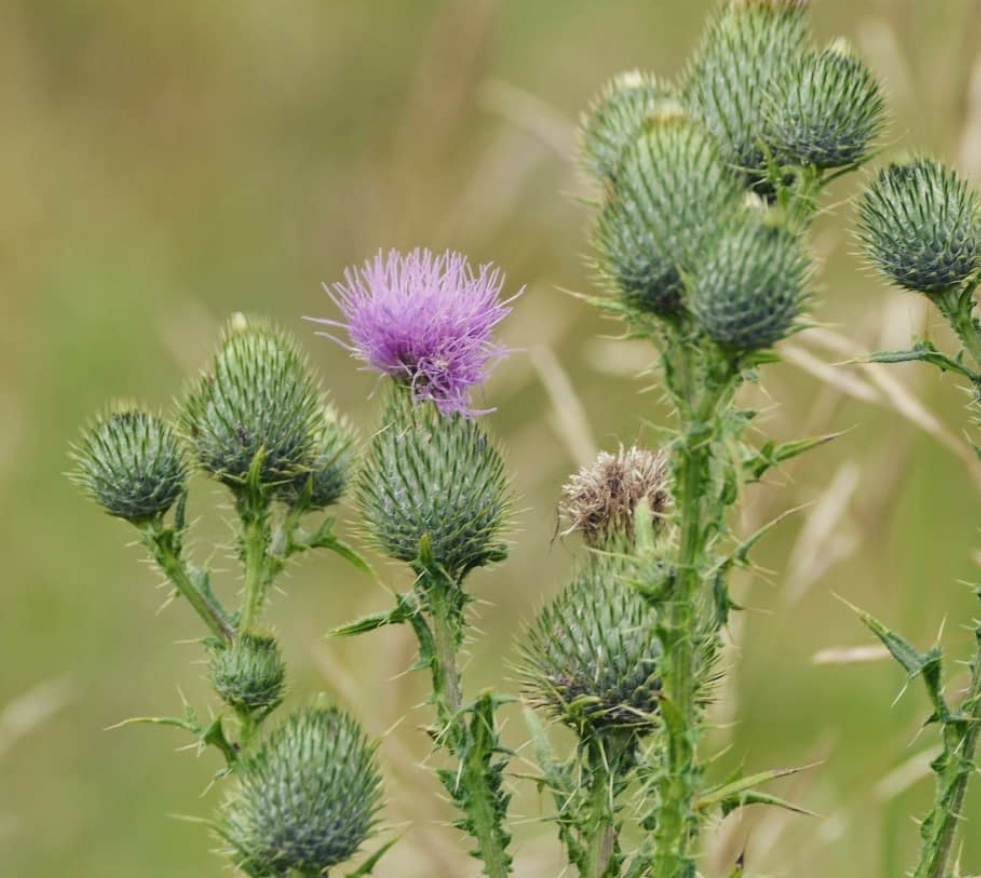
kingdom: Plantae
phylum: Tracheophyta
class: Magnoliopsida
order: Asterales
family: Asteraceae
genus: Cirsium
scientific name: Cirsium vulgare
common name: Bull thistle
